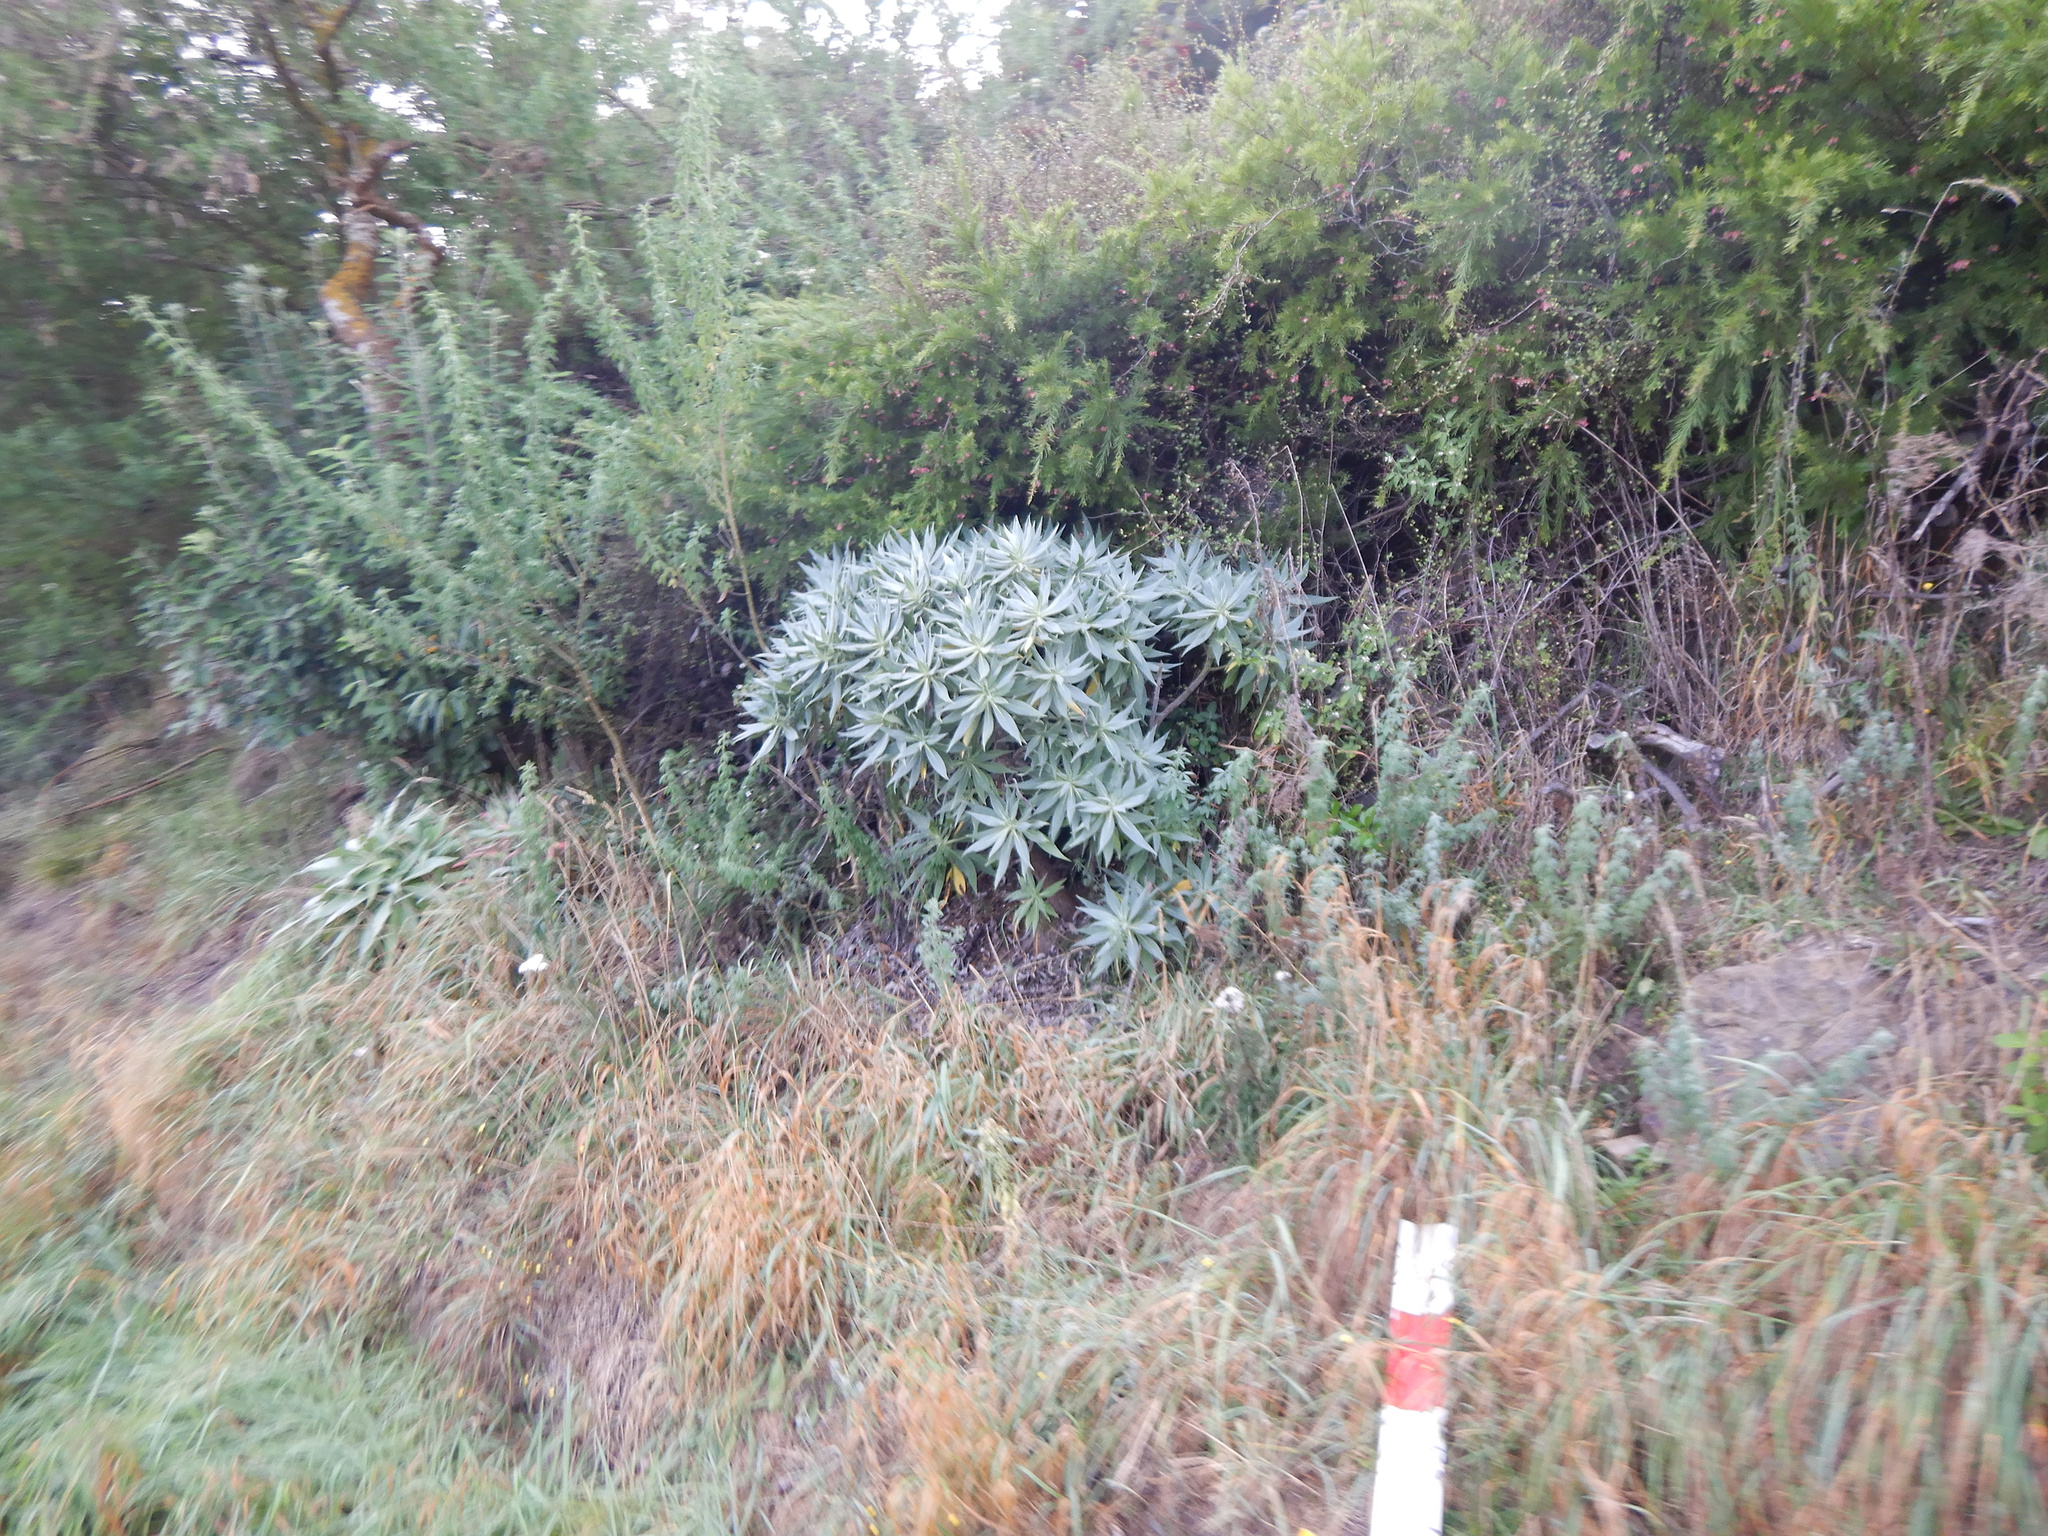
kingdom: Plantae
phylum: Tracheophyta
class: Magnoliopsida
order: Boraginales
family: Boraginaceae
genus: Echium
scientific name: Echium candicans
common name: Pride of madeira
